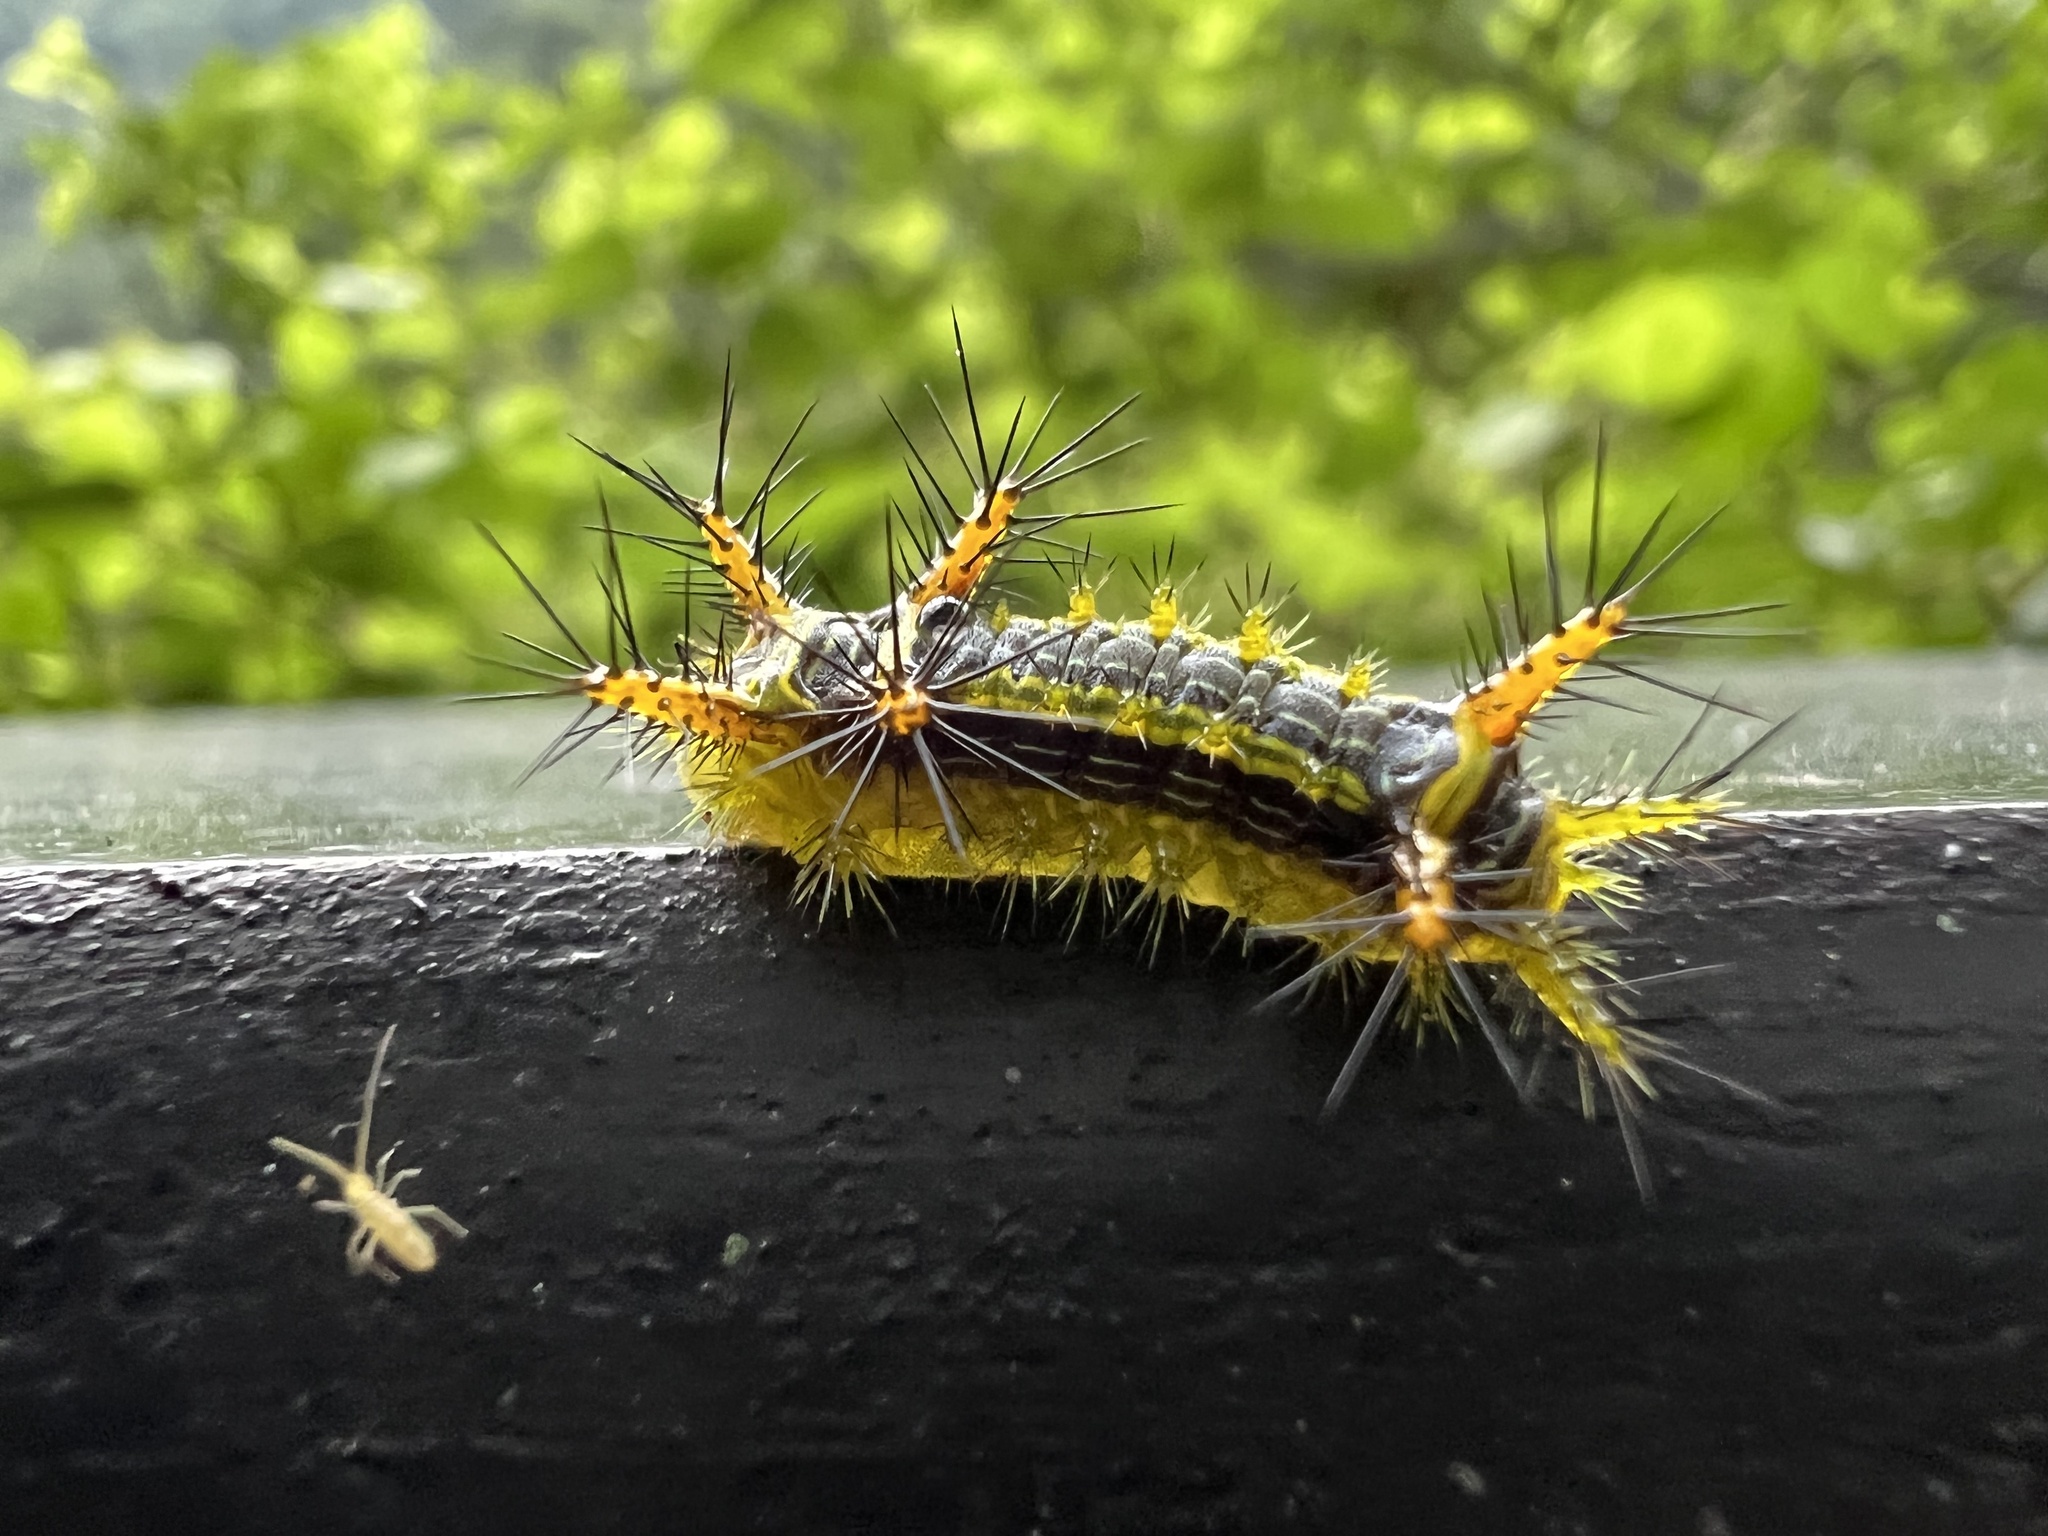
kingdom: Animalia
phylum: Arthropoda
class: Insecta
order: Lepidoptera
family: Limacodidae
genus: Narosoideus
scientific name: Narosoideus vulpina
